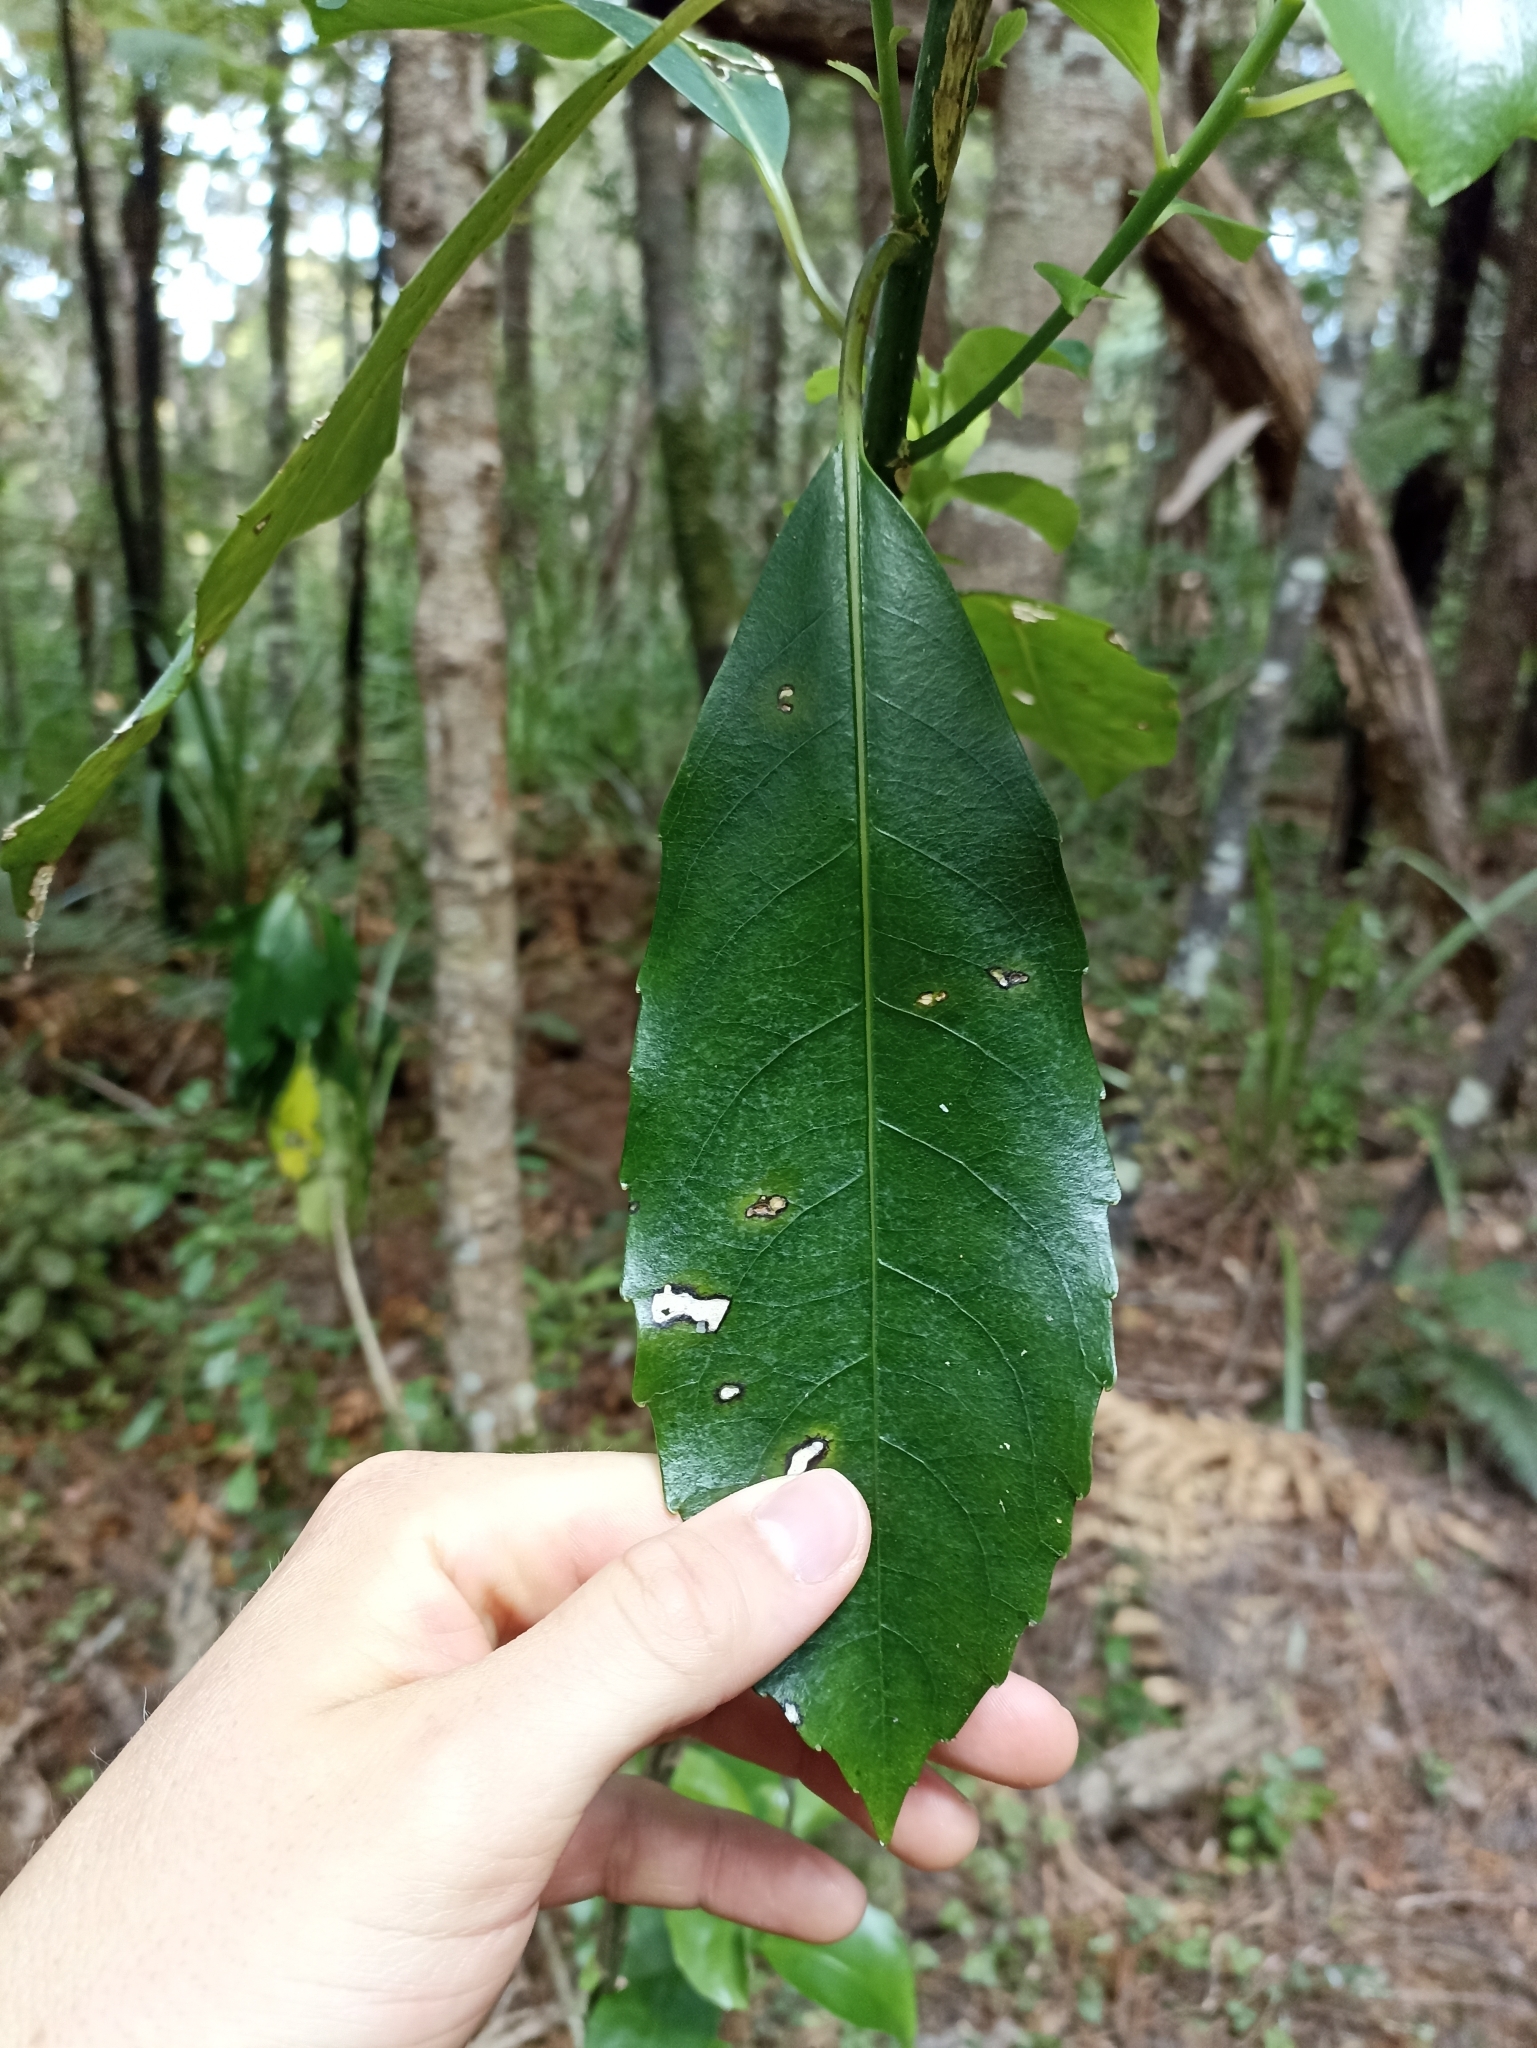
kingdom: Plantae
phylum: Tracheophyta
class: Magnoliopsida
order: Malpighiales
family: Violaceae
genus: Melicytus
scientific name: Melicytus macrophyllus
